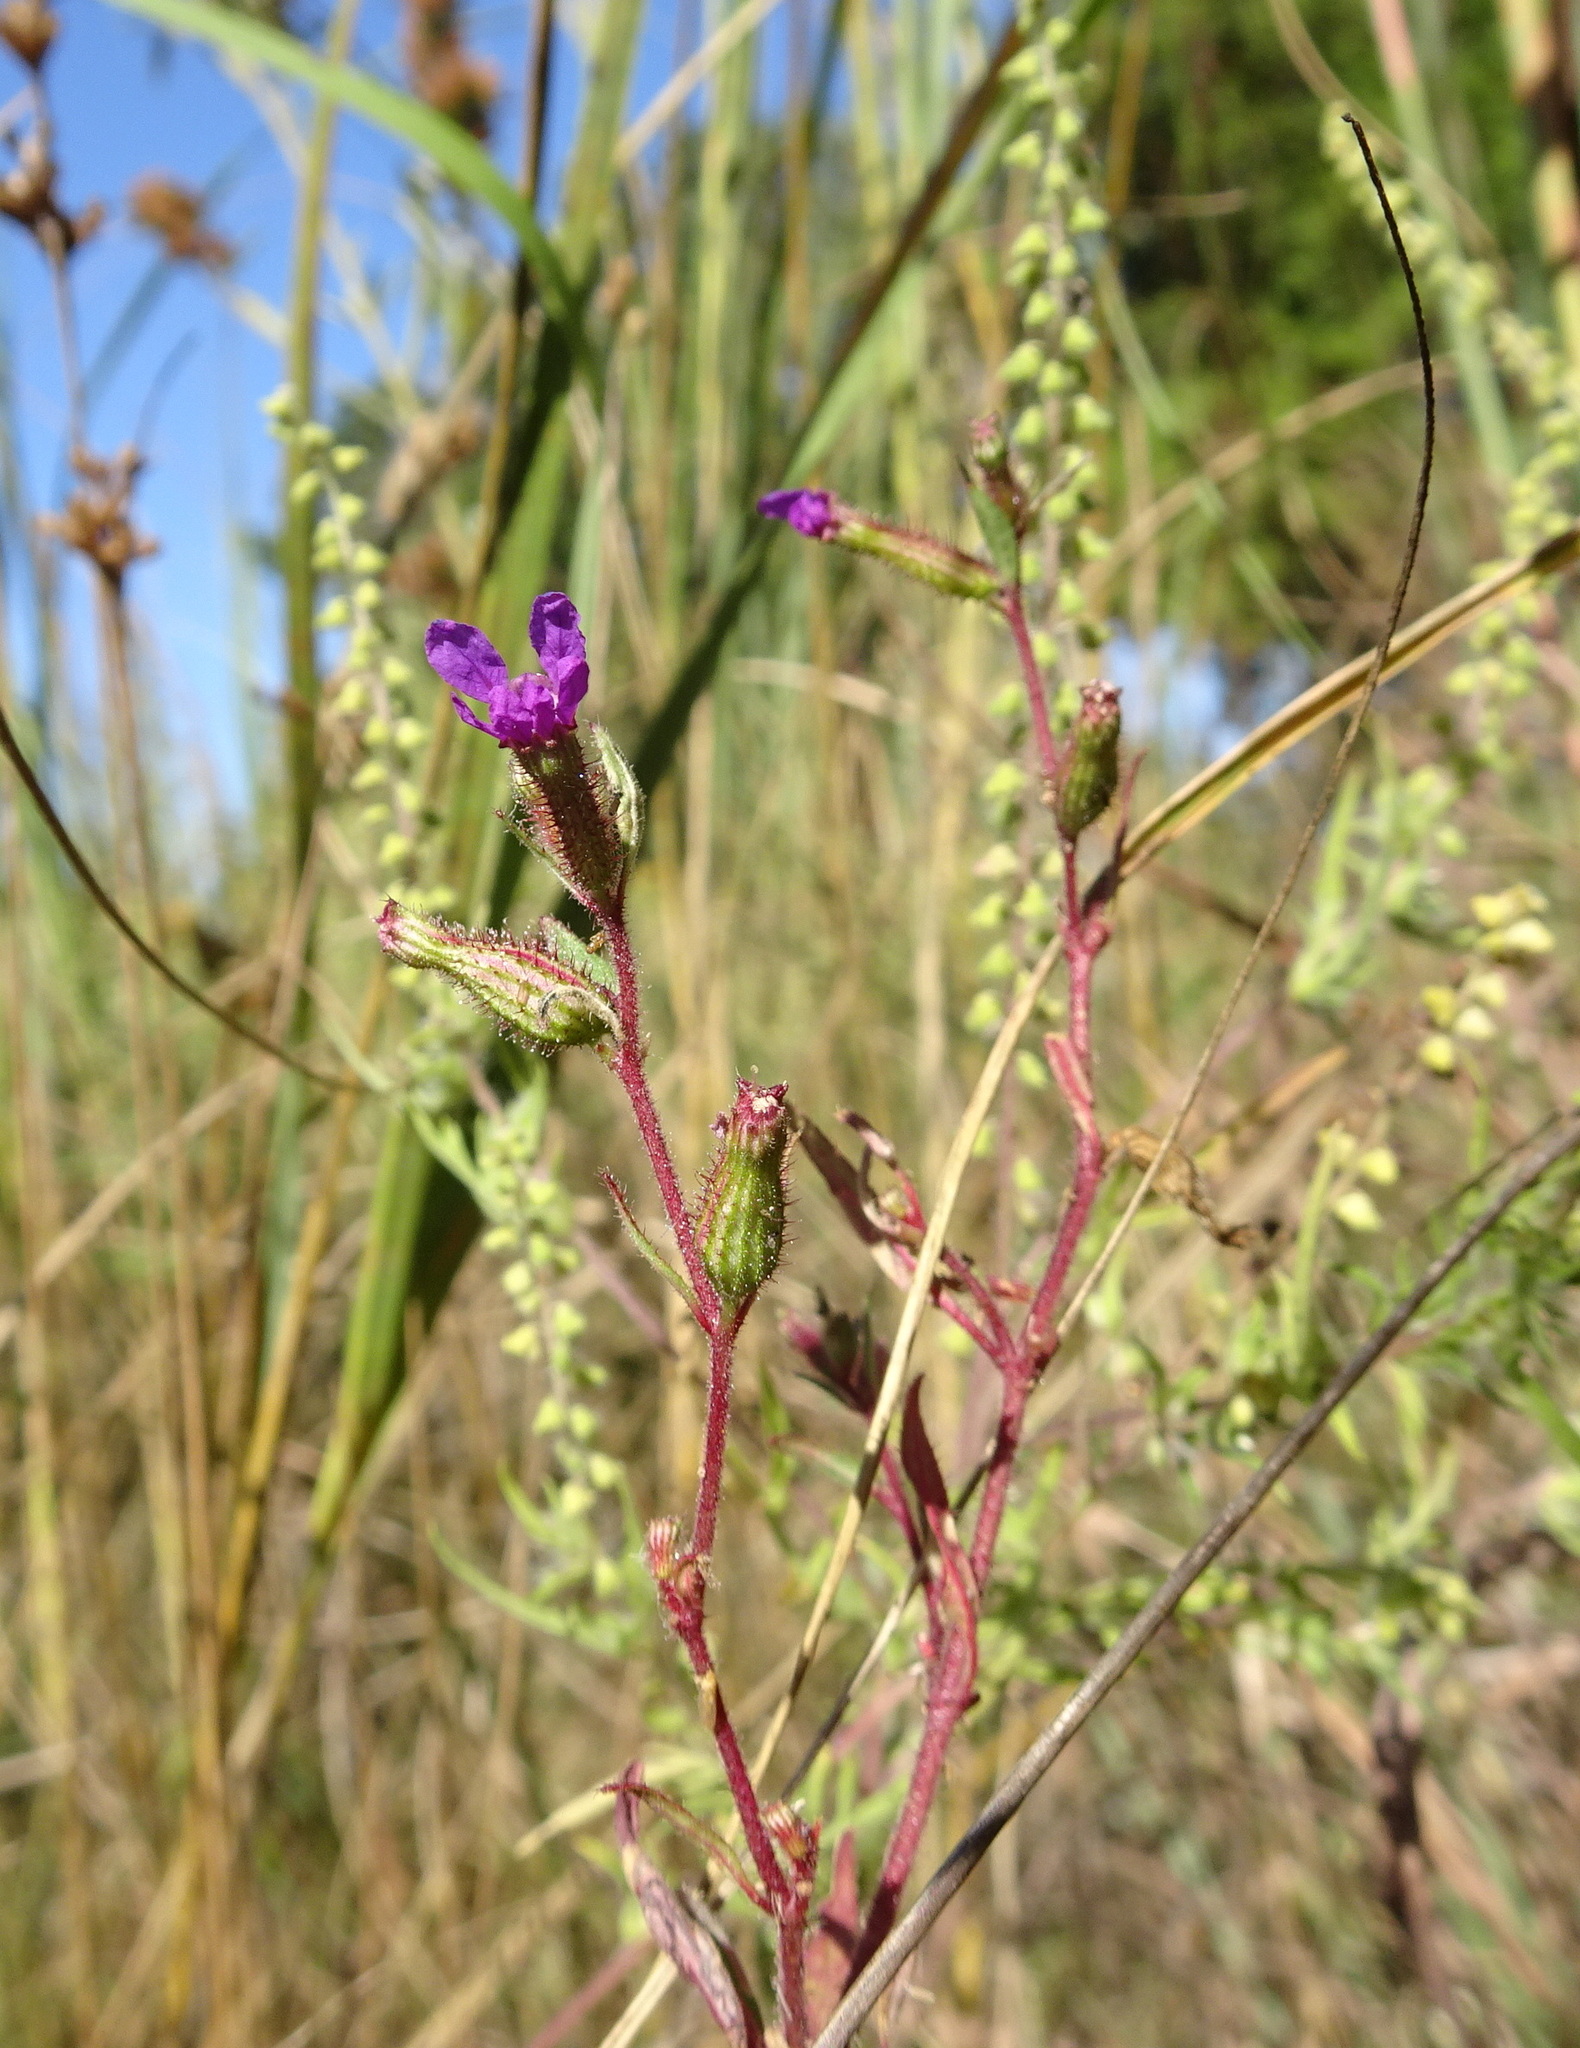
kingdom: Plantae
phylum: Tracheophyta
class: Magnoliopsida
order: Myrtales
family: Lythraceae
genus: Cuphea
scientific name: Cuphea viscosissima
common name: Clammy cuphea
